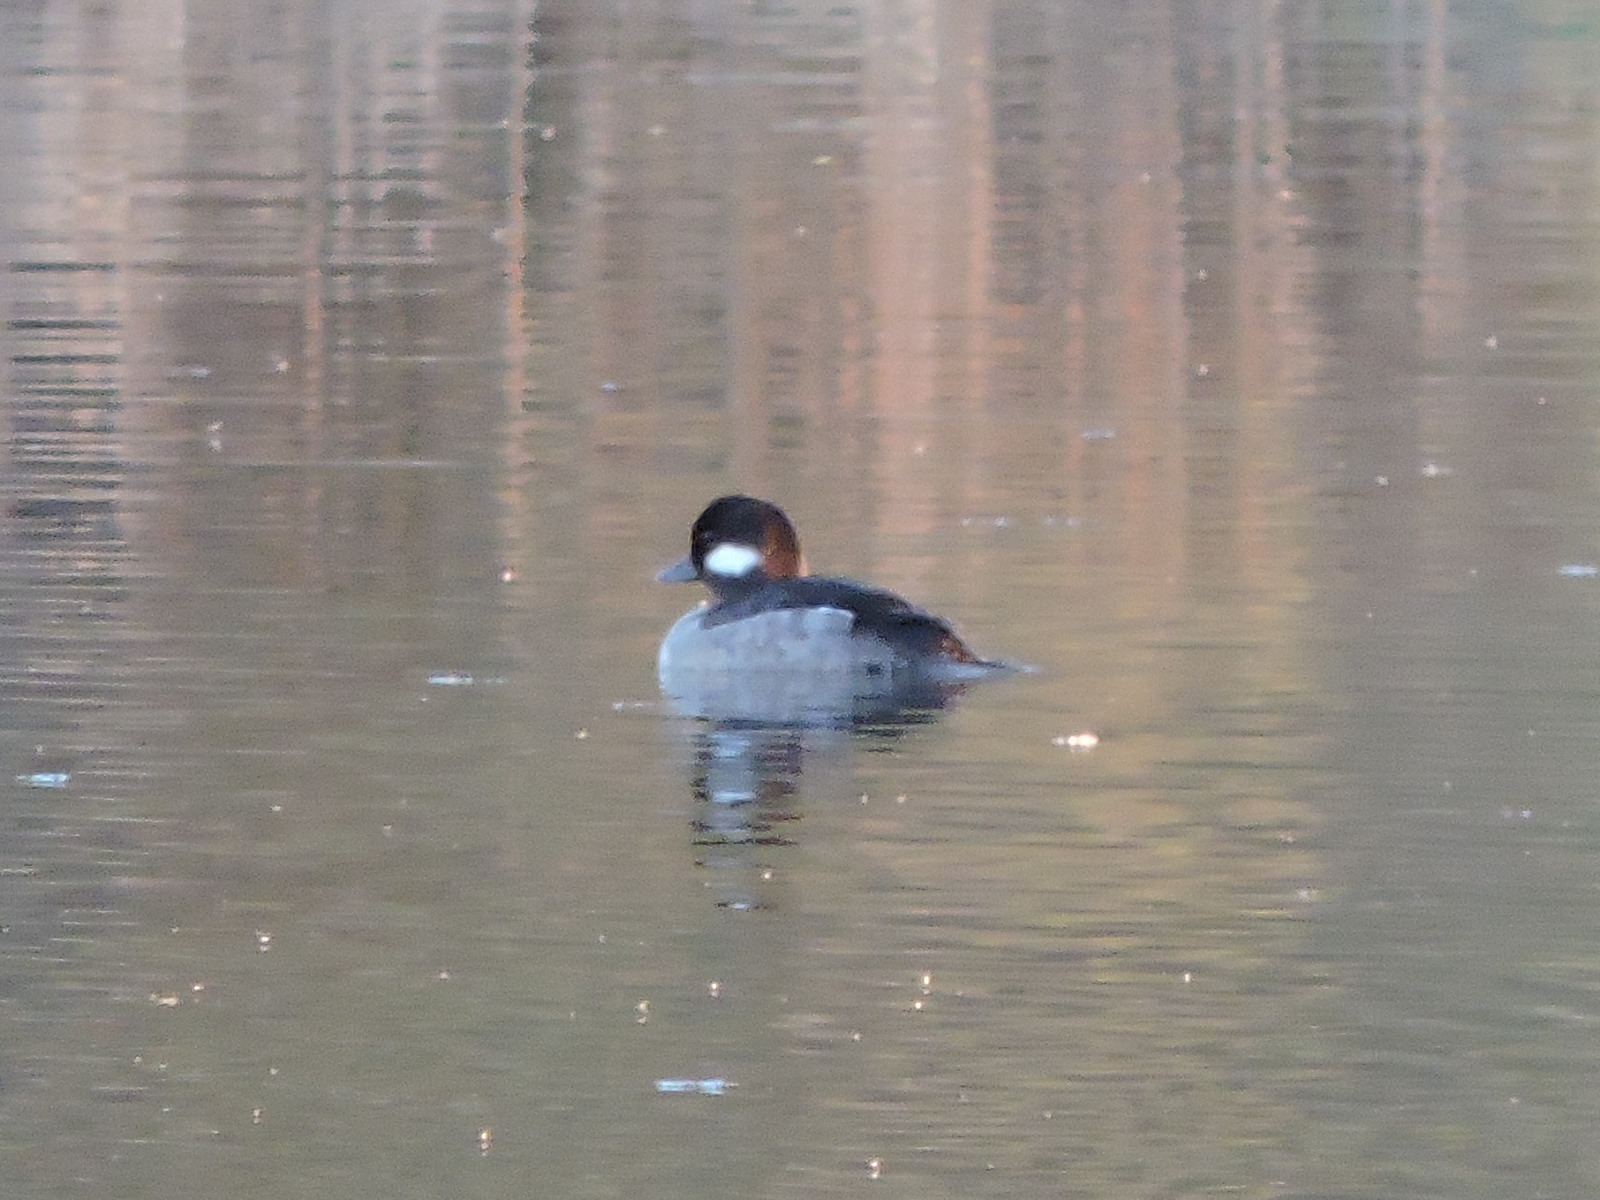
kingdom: Animalia
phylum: Chordata
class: Aves
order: Anseriformes
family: Anatidae
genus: Bucephala
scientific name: Bucephala albeola
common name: Bufflehead
